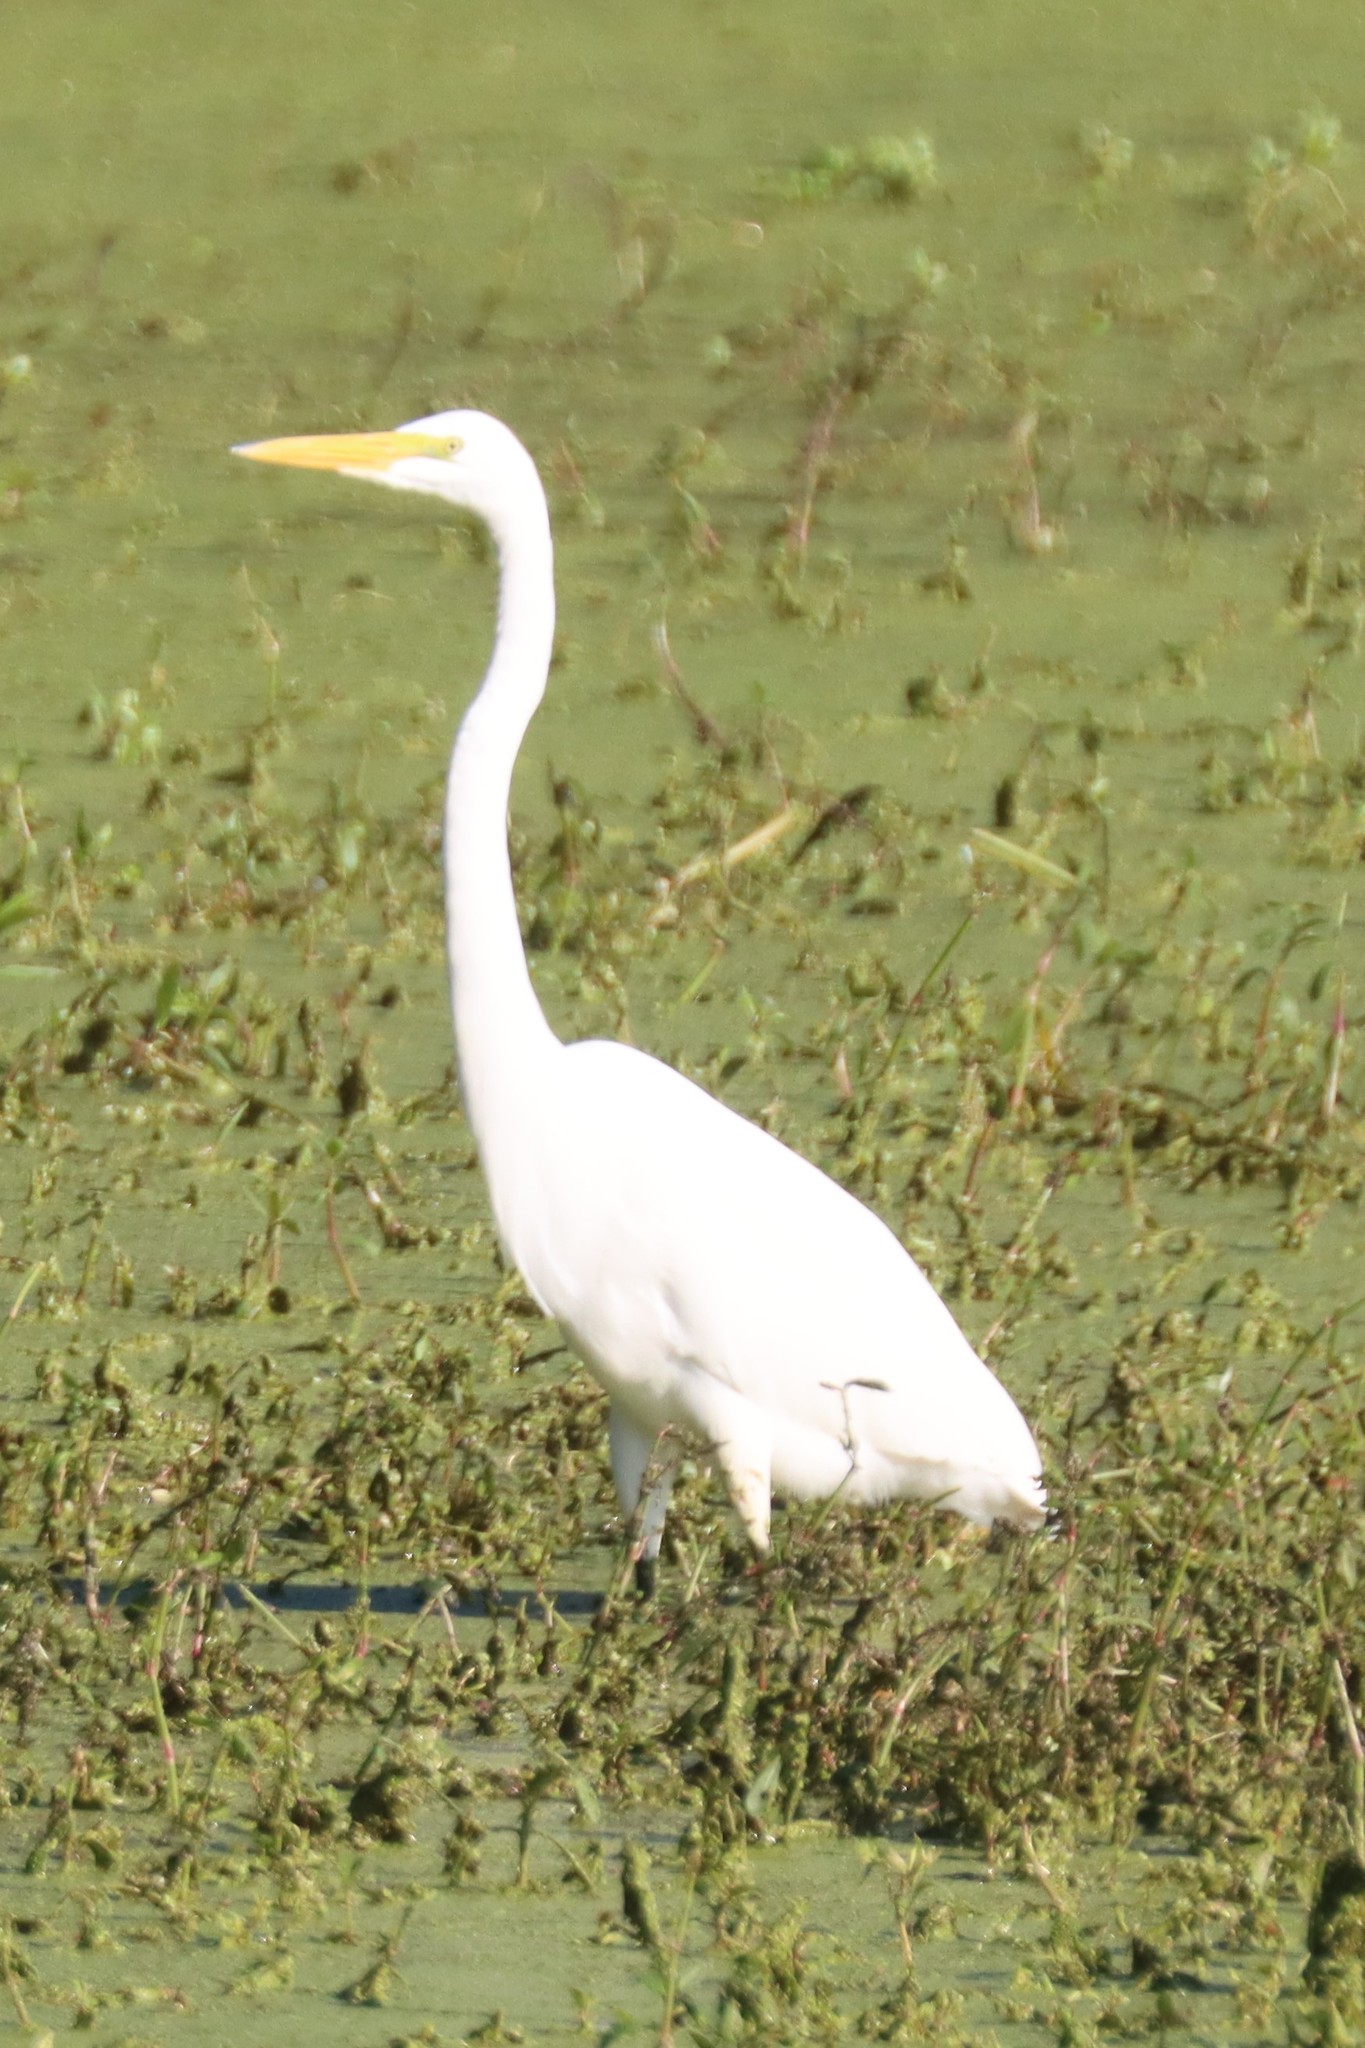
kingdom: Animalia
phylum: Chordata
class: Aves
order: Pelecaniformes
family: Ardeidae
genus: Ardea
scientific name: Ardea alba
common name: Great egret
